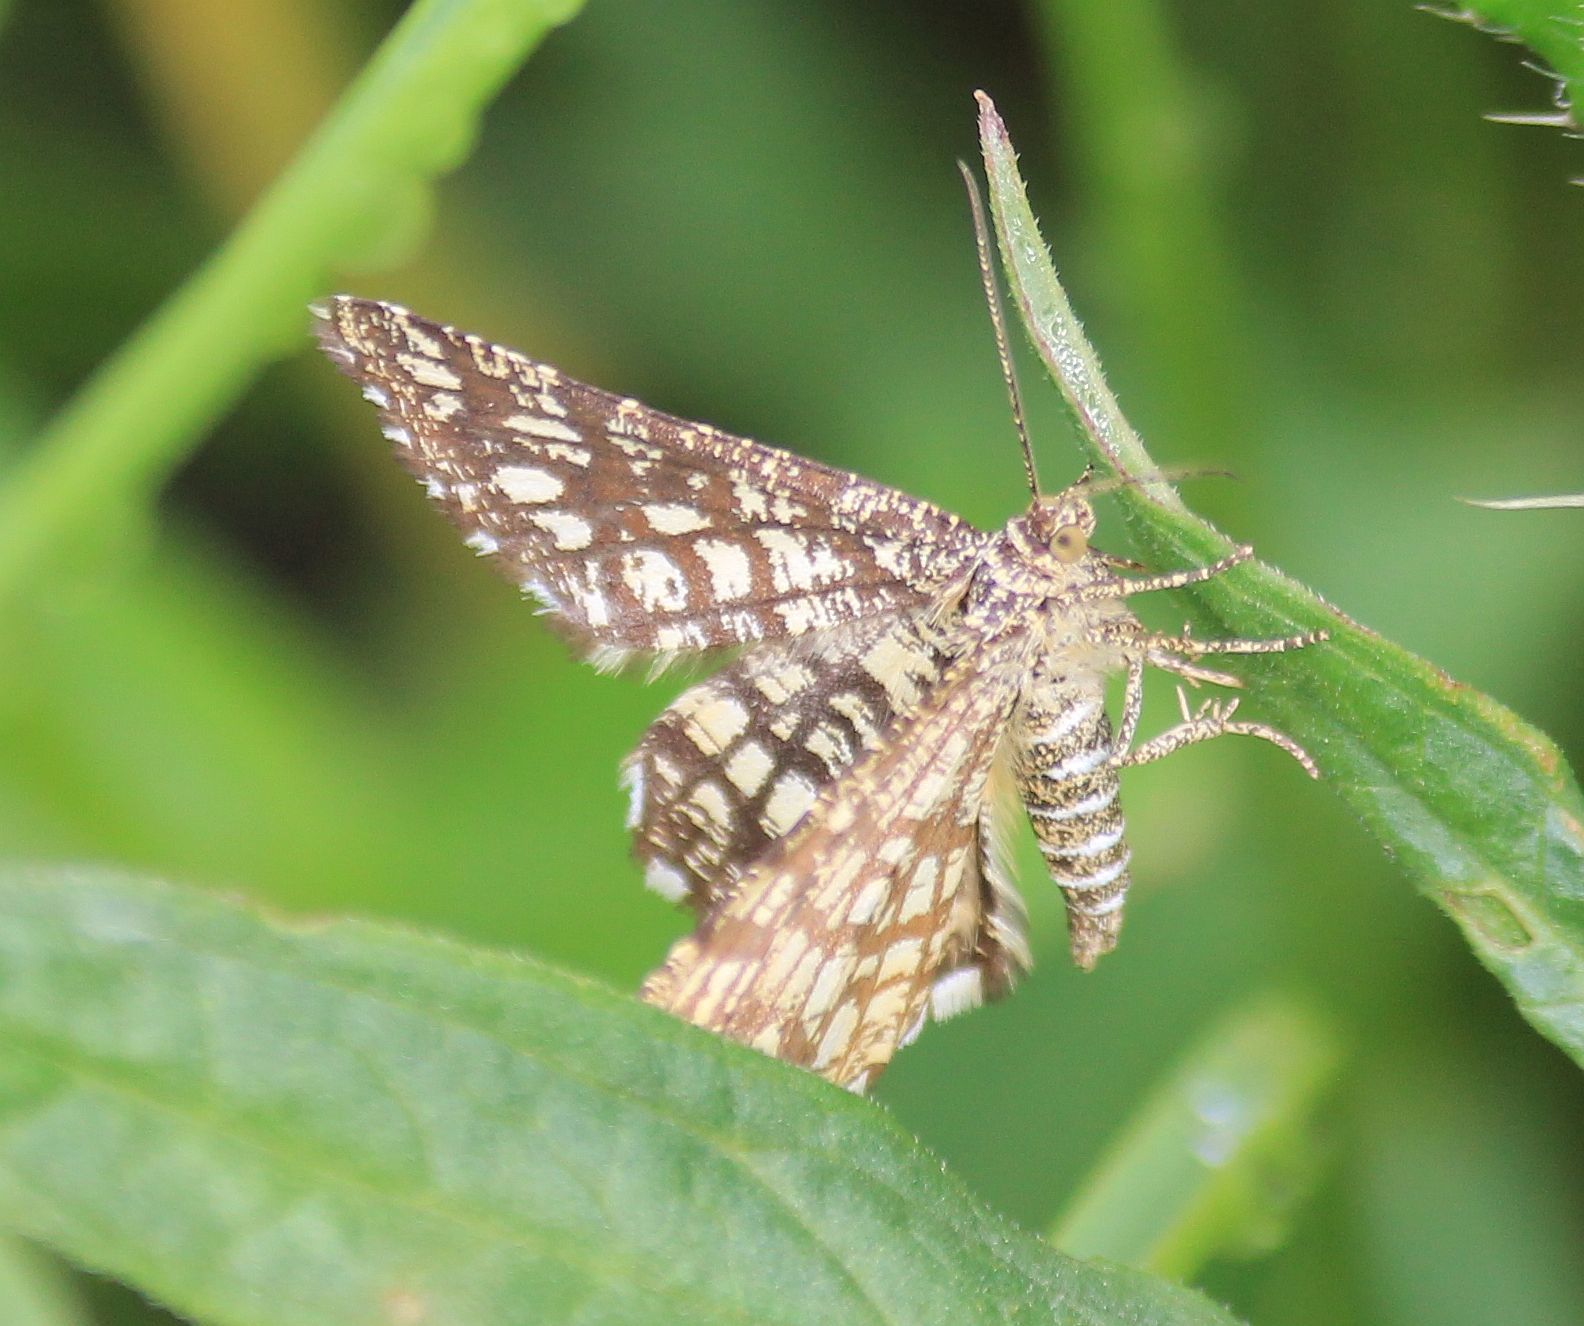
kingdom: Animalia
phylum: Arthropoda
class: Insecta
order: Lepidoptera
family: Geometridae
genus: Chiasmia
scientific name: Chiasmia clathrata
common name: Latticed heath
